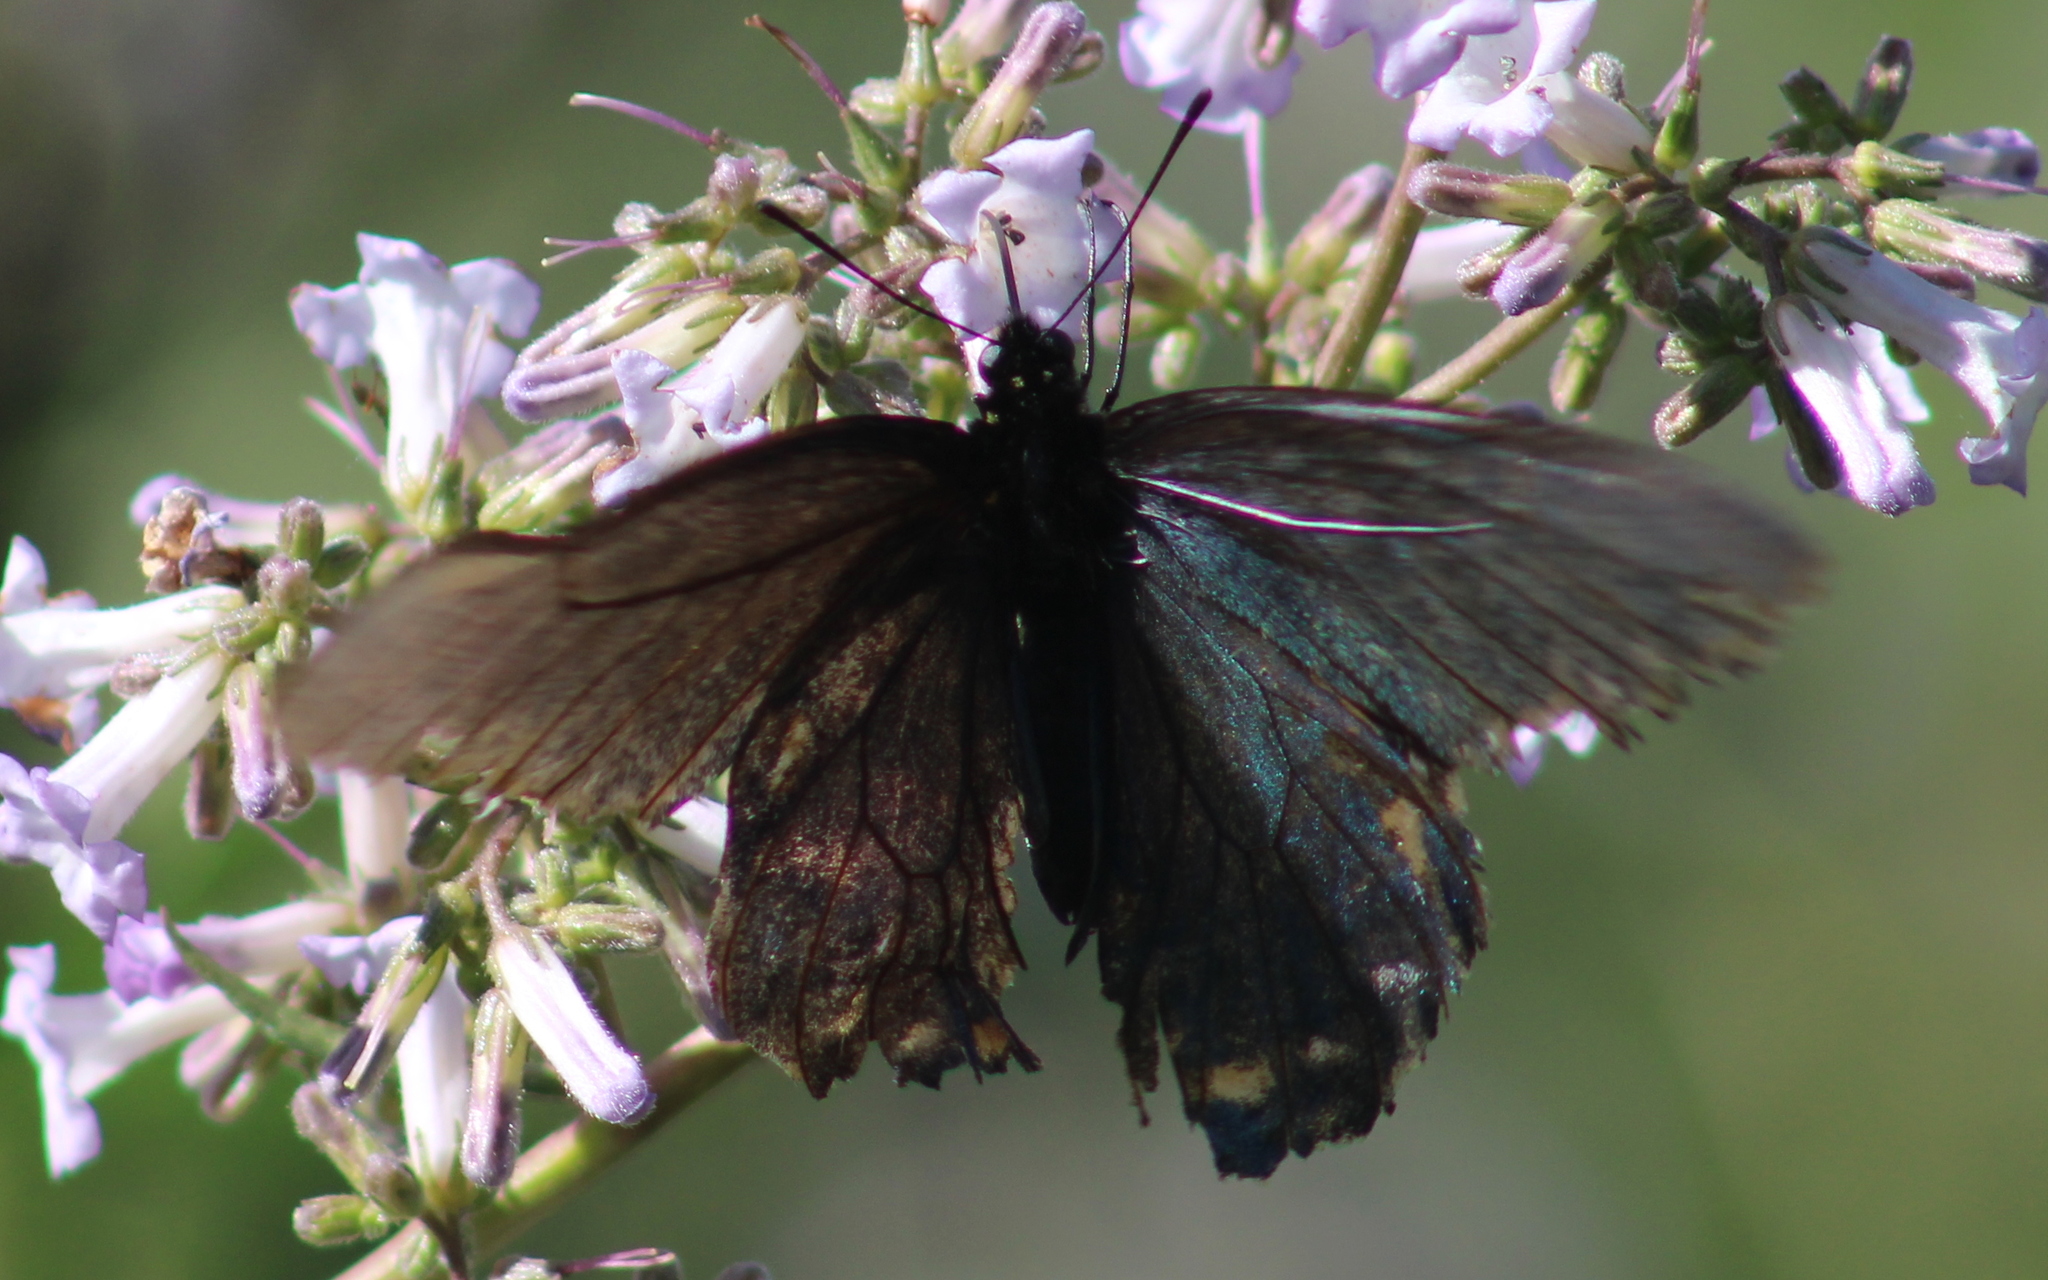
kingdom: Animalia
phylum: Arthropoda
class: Insecta
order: Lepidoptera
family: Papilionidae
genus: Battus
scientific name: Battus philenor
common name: Pipevine swallowtail
